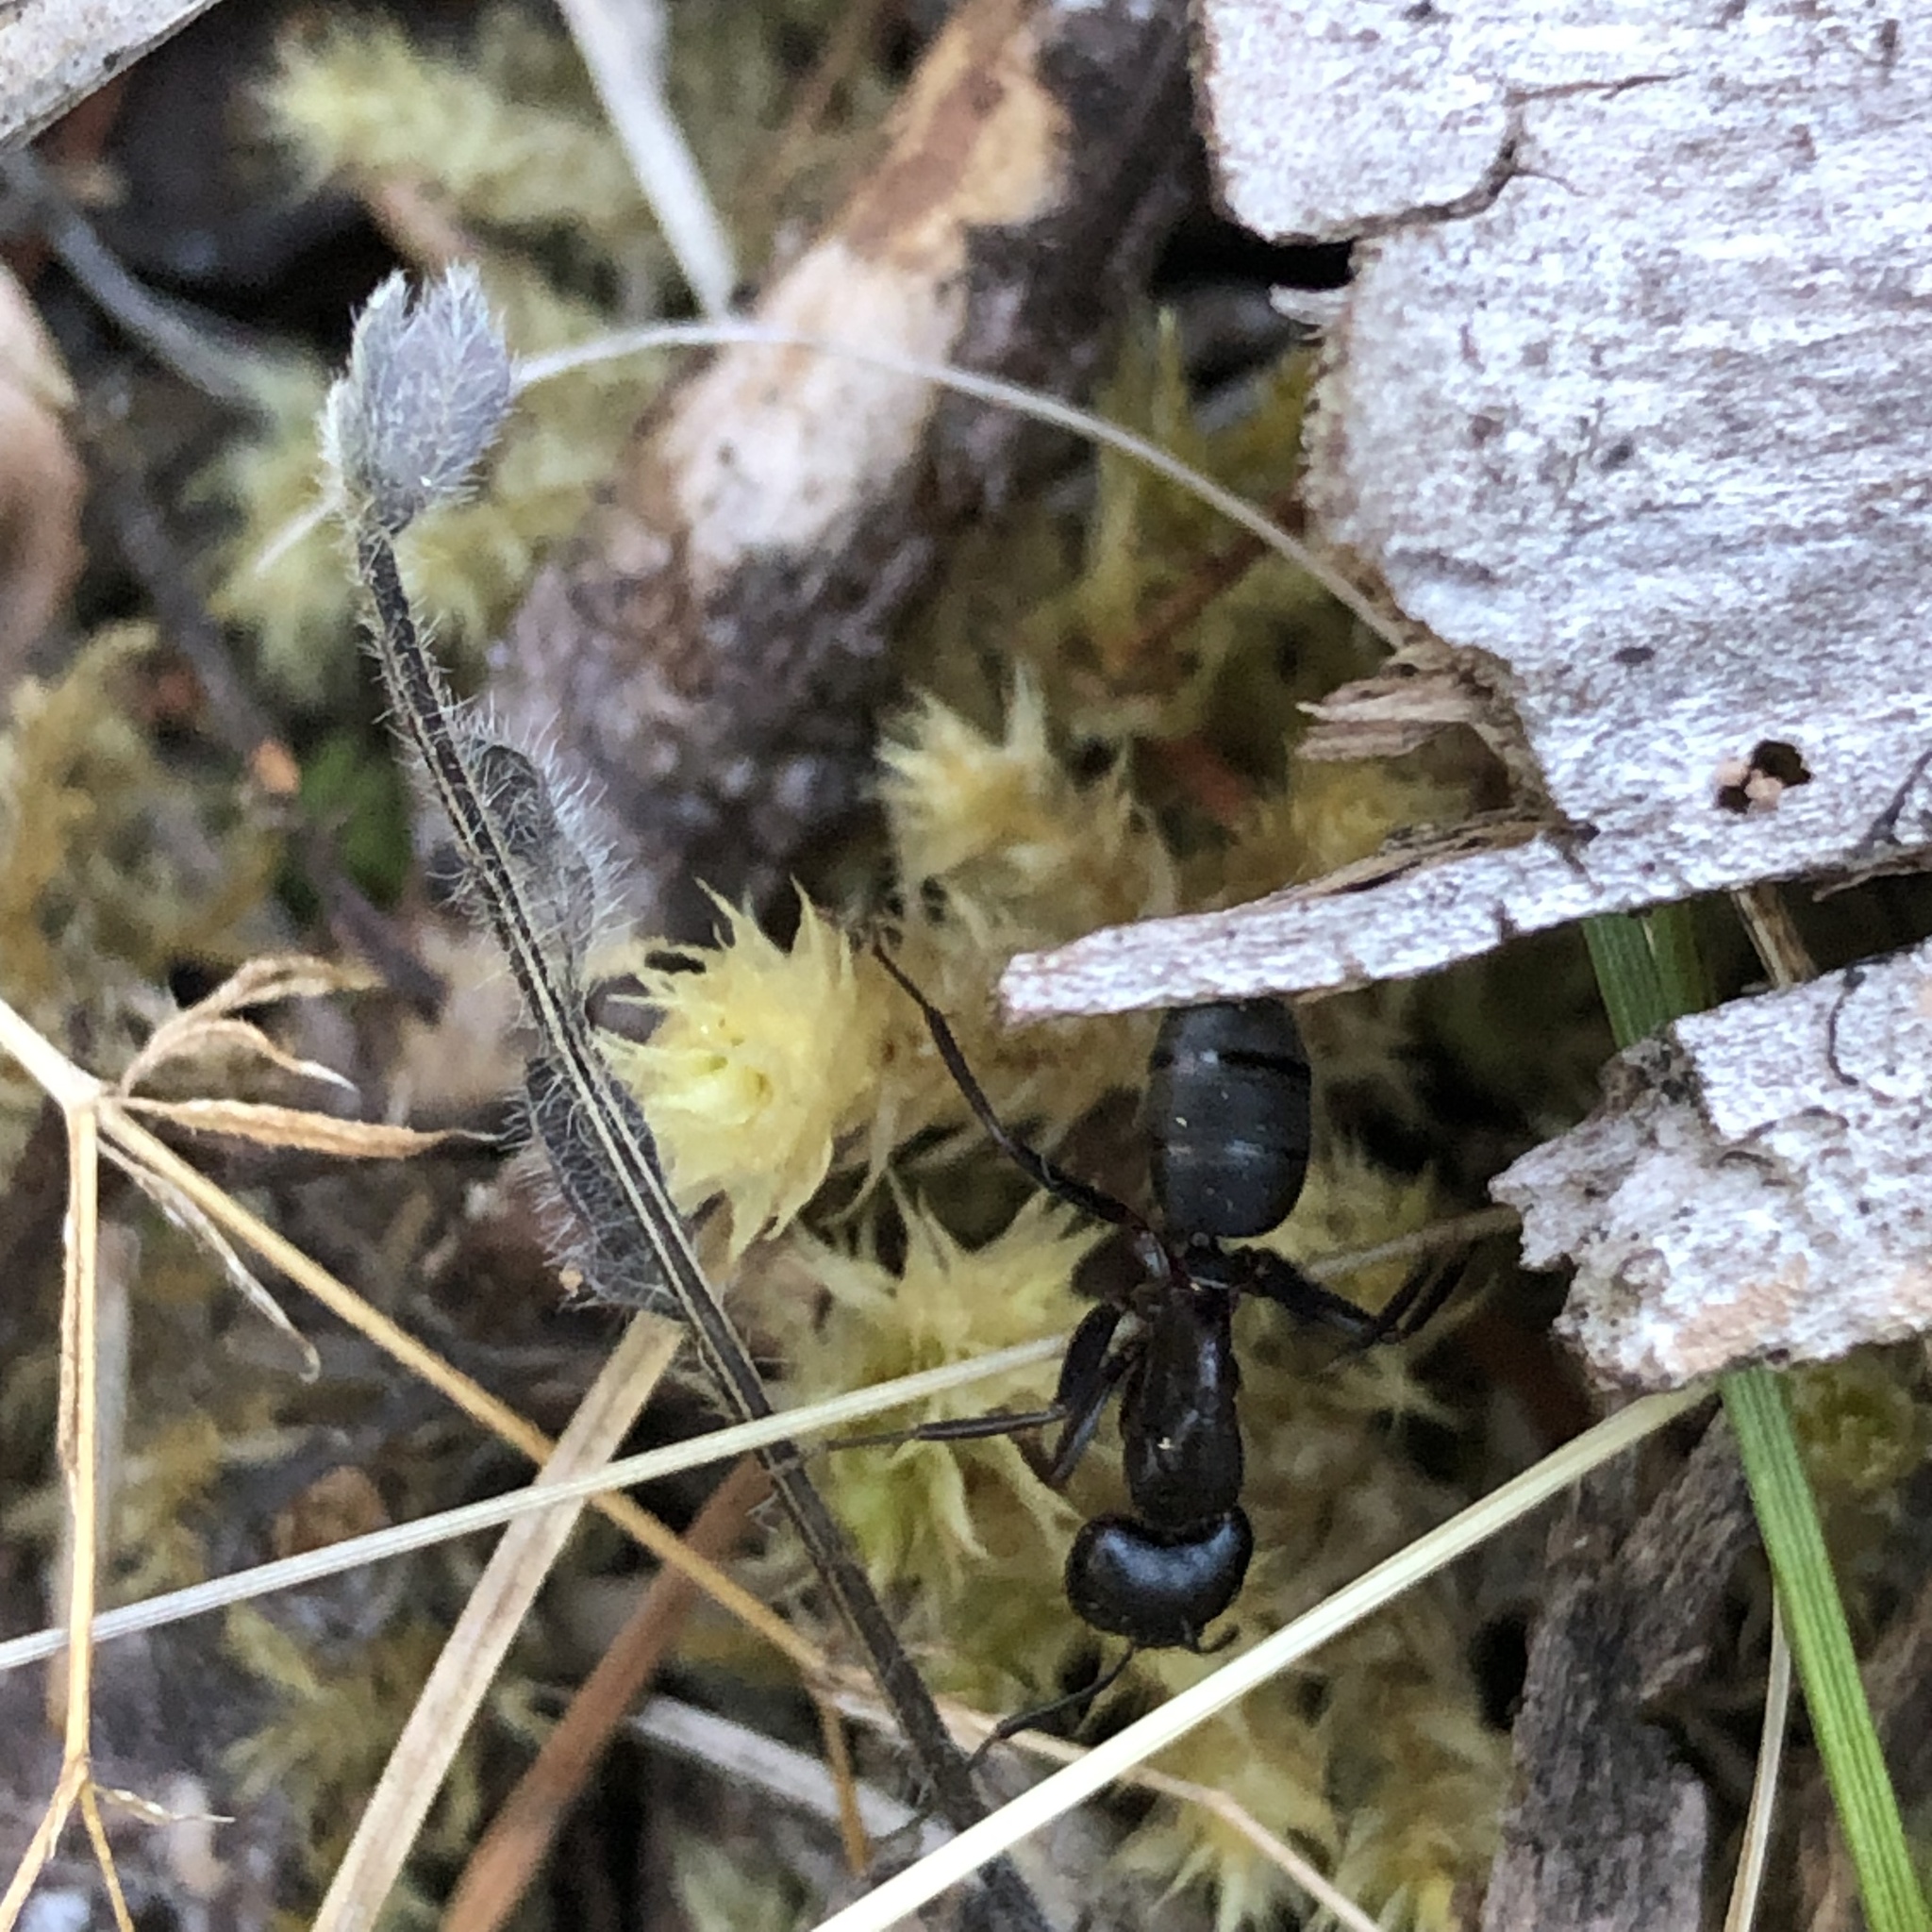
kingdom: Animalia
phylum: Arthropoda
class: Insecta
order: Hymenoptera
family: Formicidae
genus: Camponotus
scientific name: Camponotus modoc
